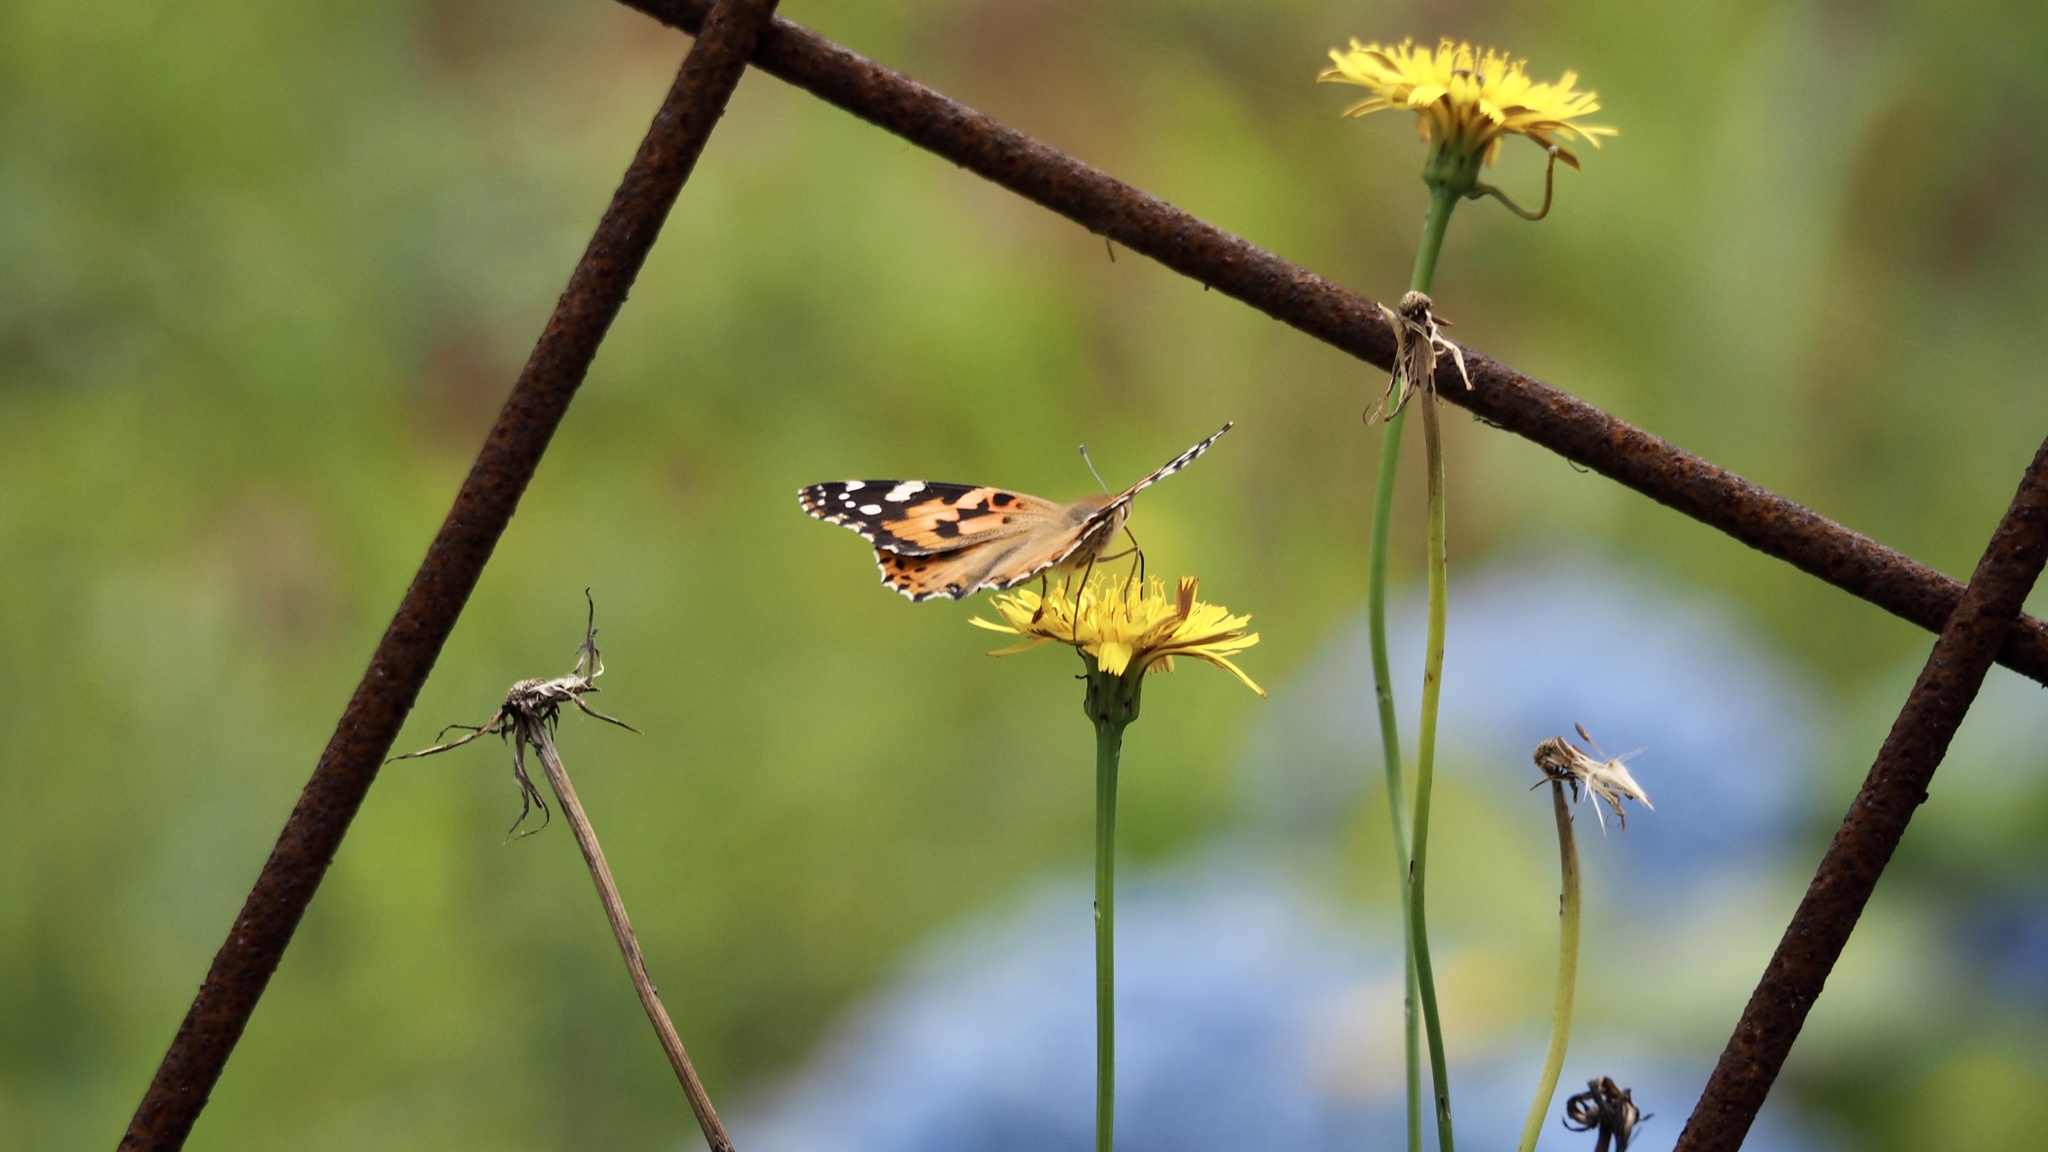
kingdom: Animalia
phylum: Arthropoda
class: Insecta
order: Lepidoptera
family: Nymphalidae
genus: Vanessa
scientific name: Vanessa cardui
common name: Painted lady
